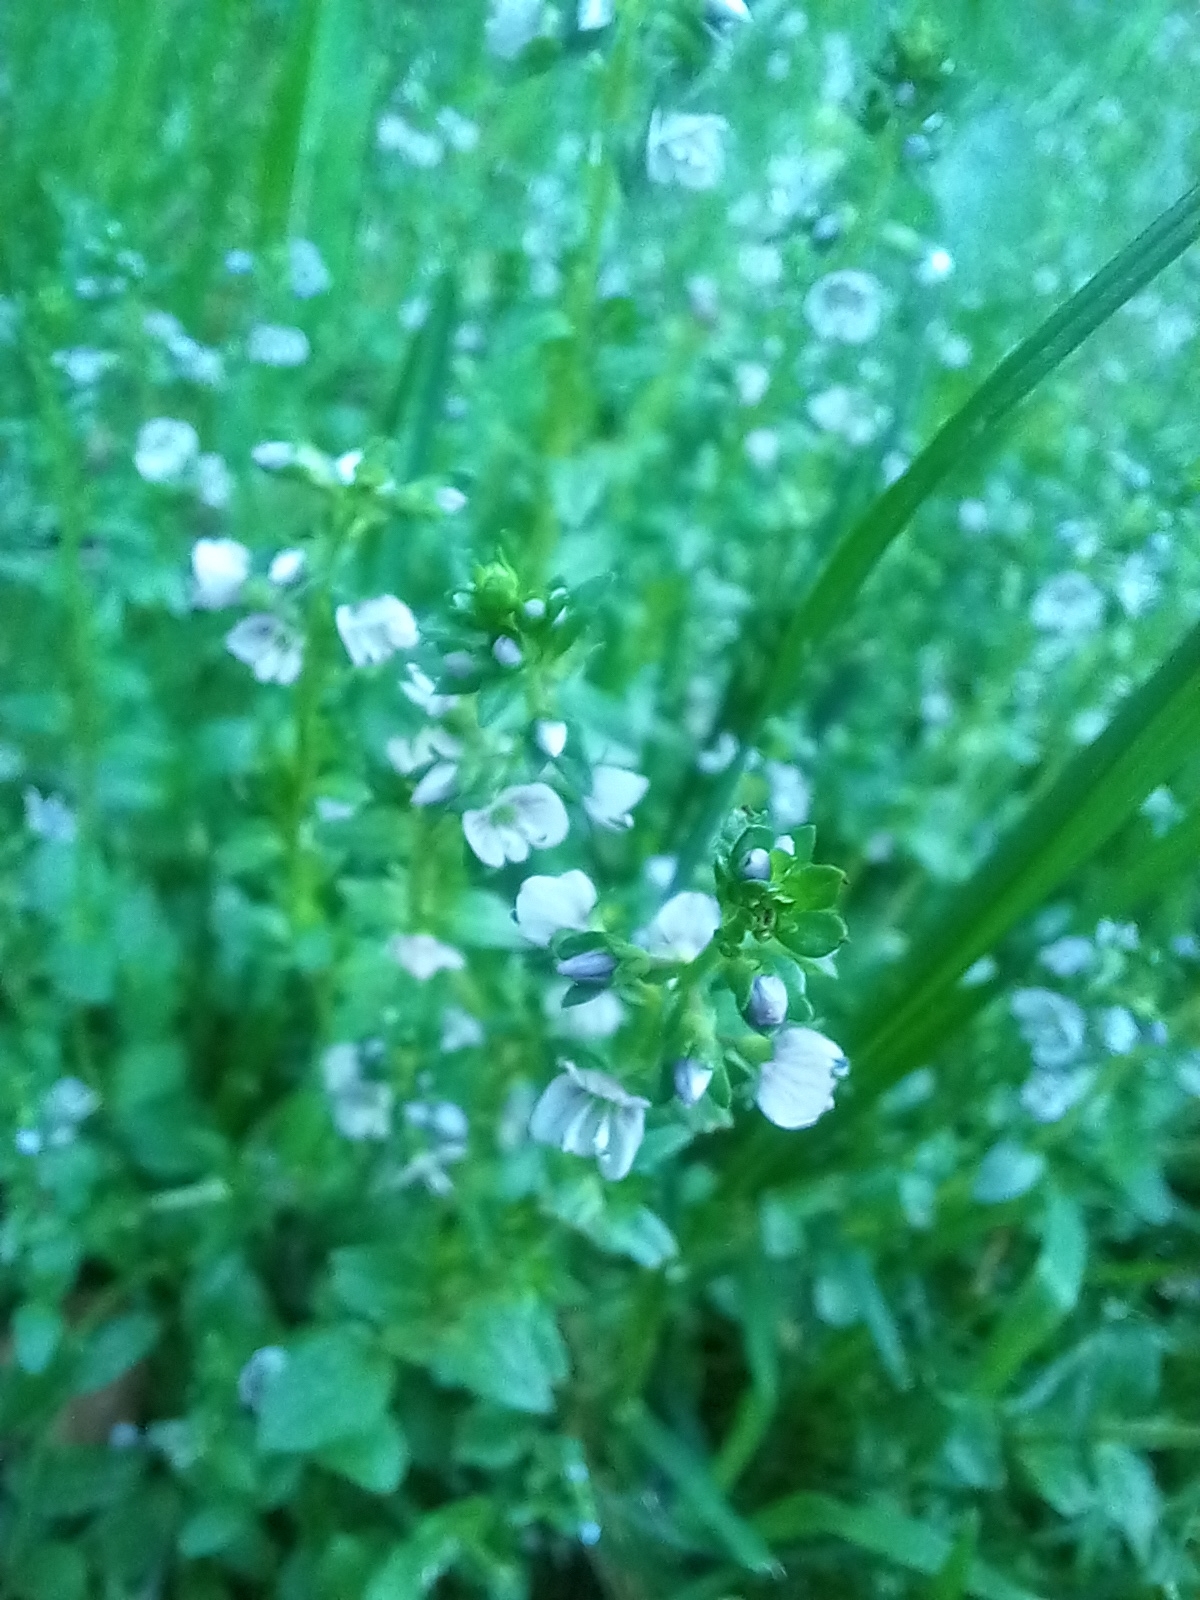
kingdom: Plantae
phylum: Tracheophyta
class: Magnoliopsida
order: Lamiales
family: Plantaginaceae
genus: Veronica
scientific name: Veronica serpyllifolia
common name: Thyme-leaved speedwell
